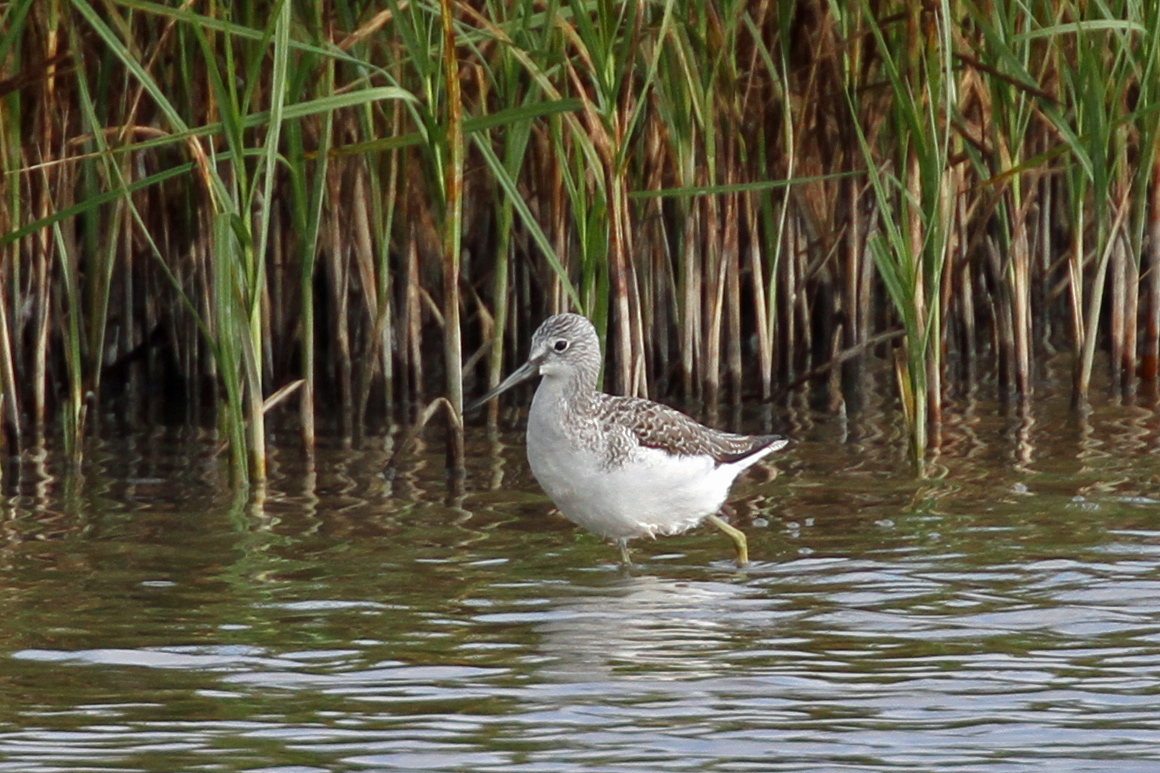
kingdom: Animalia
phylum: Chordata
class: Aves
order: Charadriiformes
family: Scolopacidae
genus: Tringa
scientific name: Tringa nebularia
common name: Common greenshank
